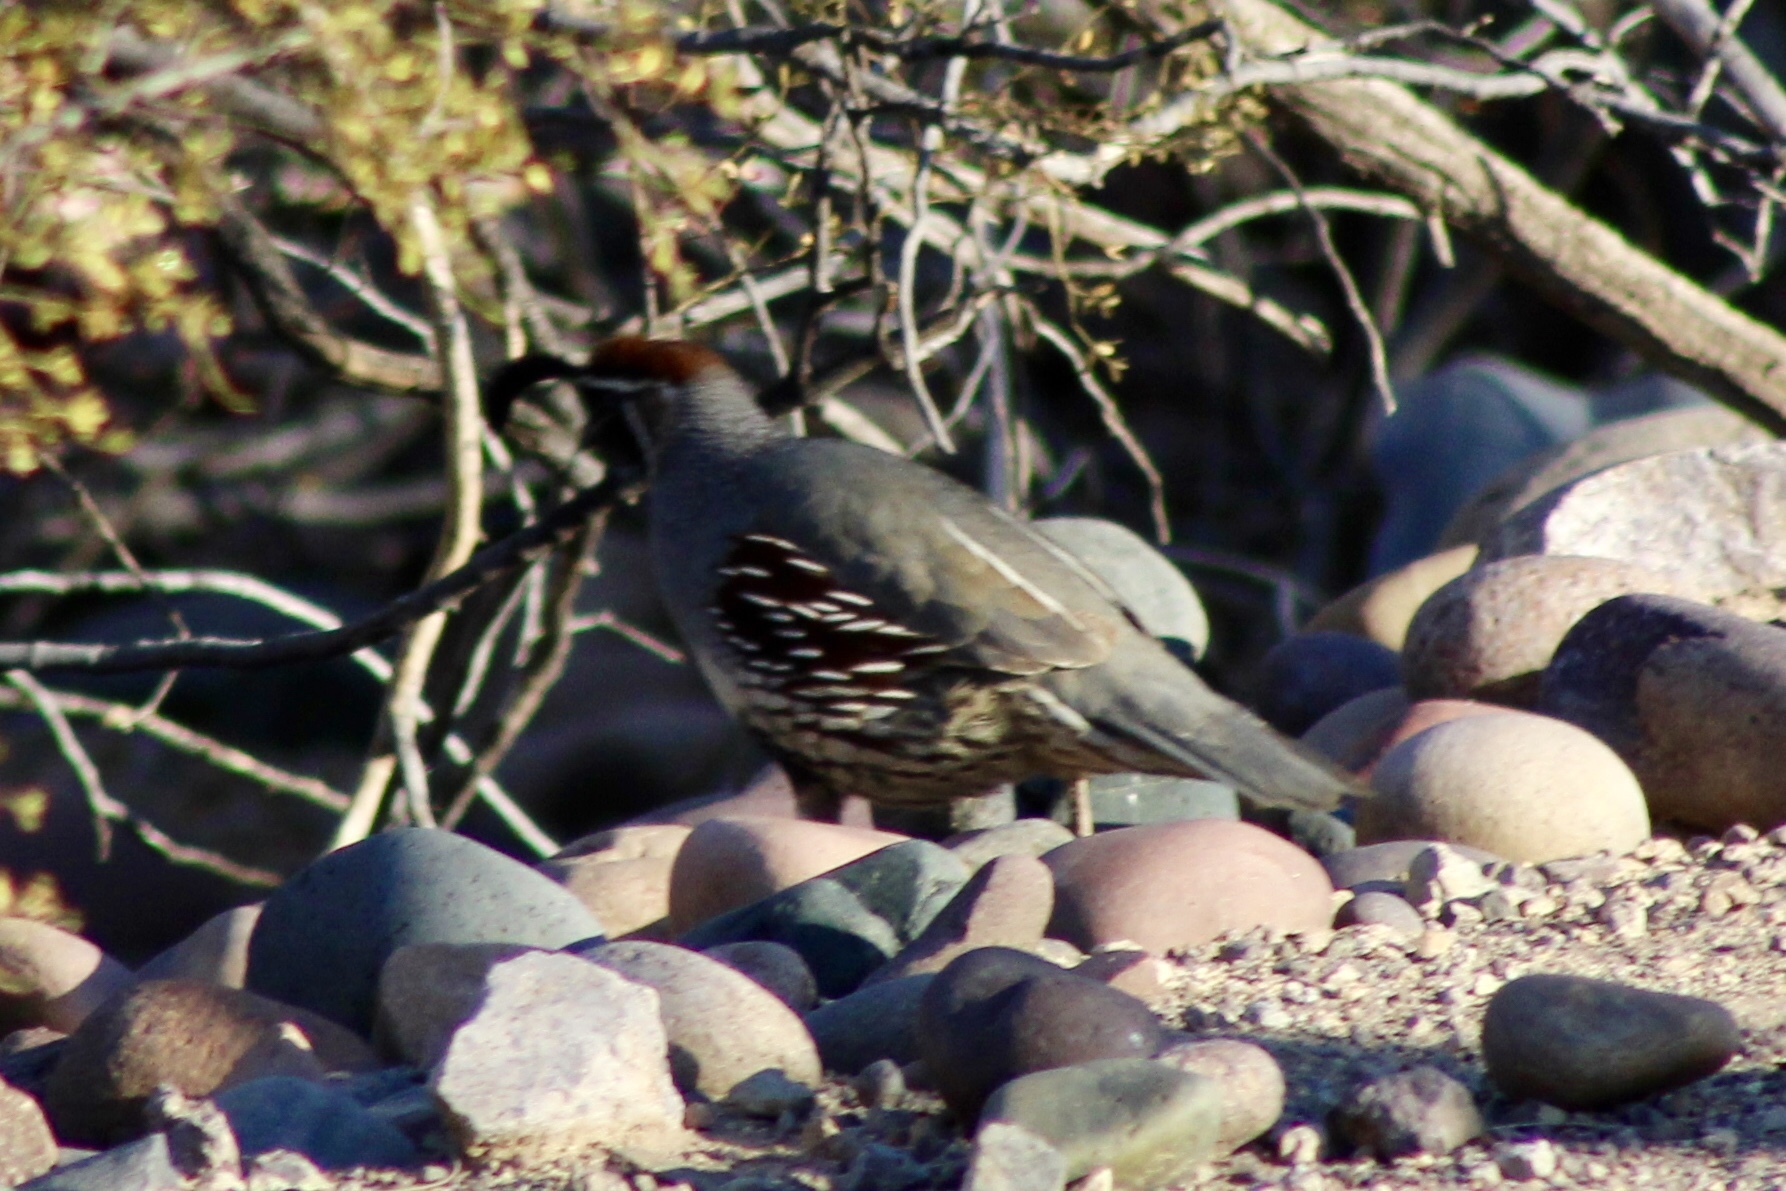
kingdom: Animalia
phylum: Chordata
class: Aves
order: Galliformes
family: Odontophoridae
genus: Callipepla
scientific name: Callipepla gambelii
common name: Gambel's quail
